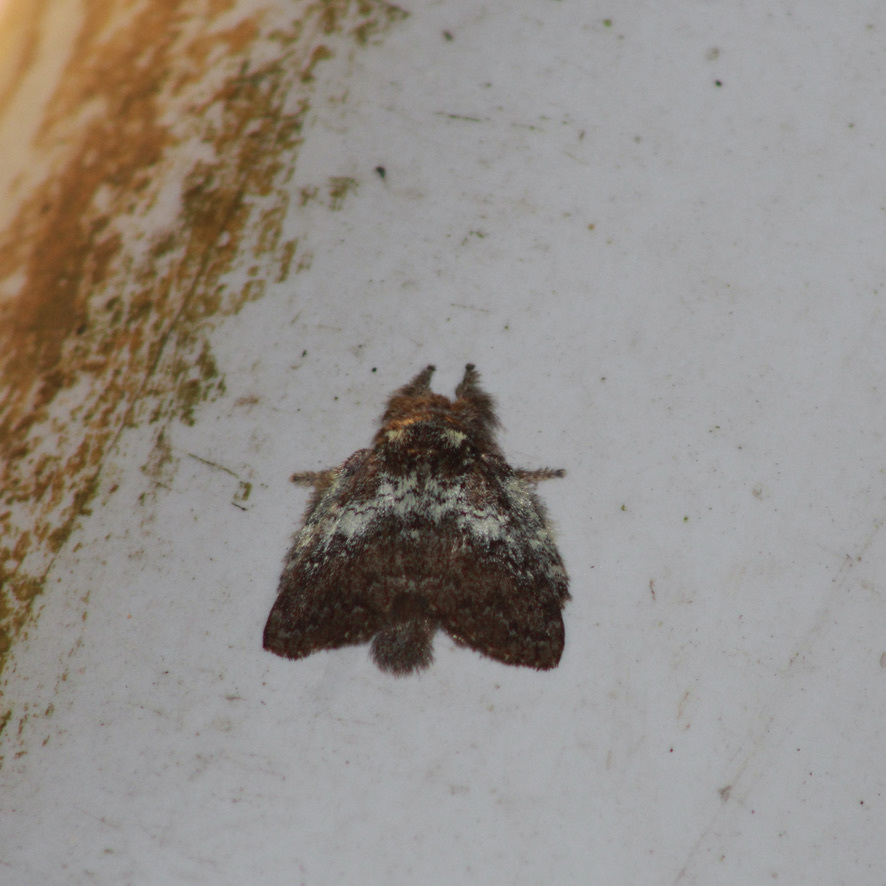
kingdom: Animalia
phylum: Arthropoda
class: Insecta
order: Lepidoptera
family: Lasiocampidae
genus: Euglyphis
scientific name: Euglyphis mediana
